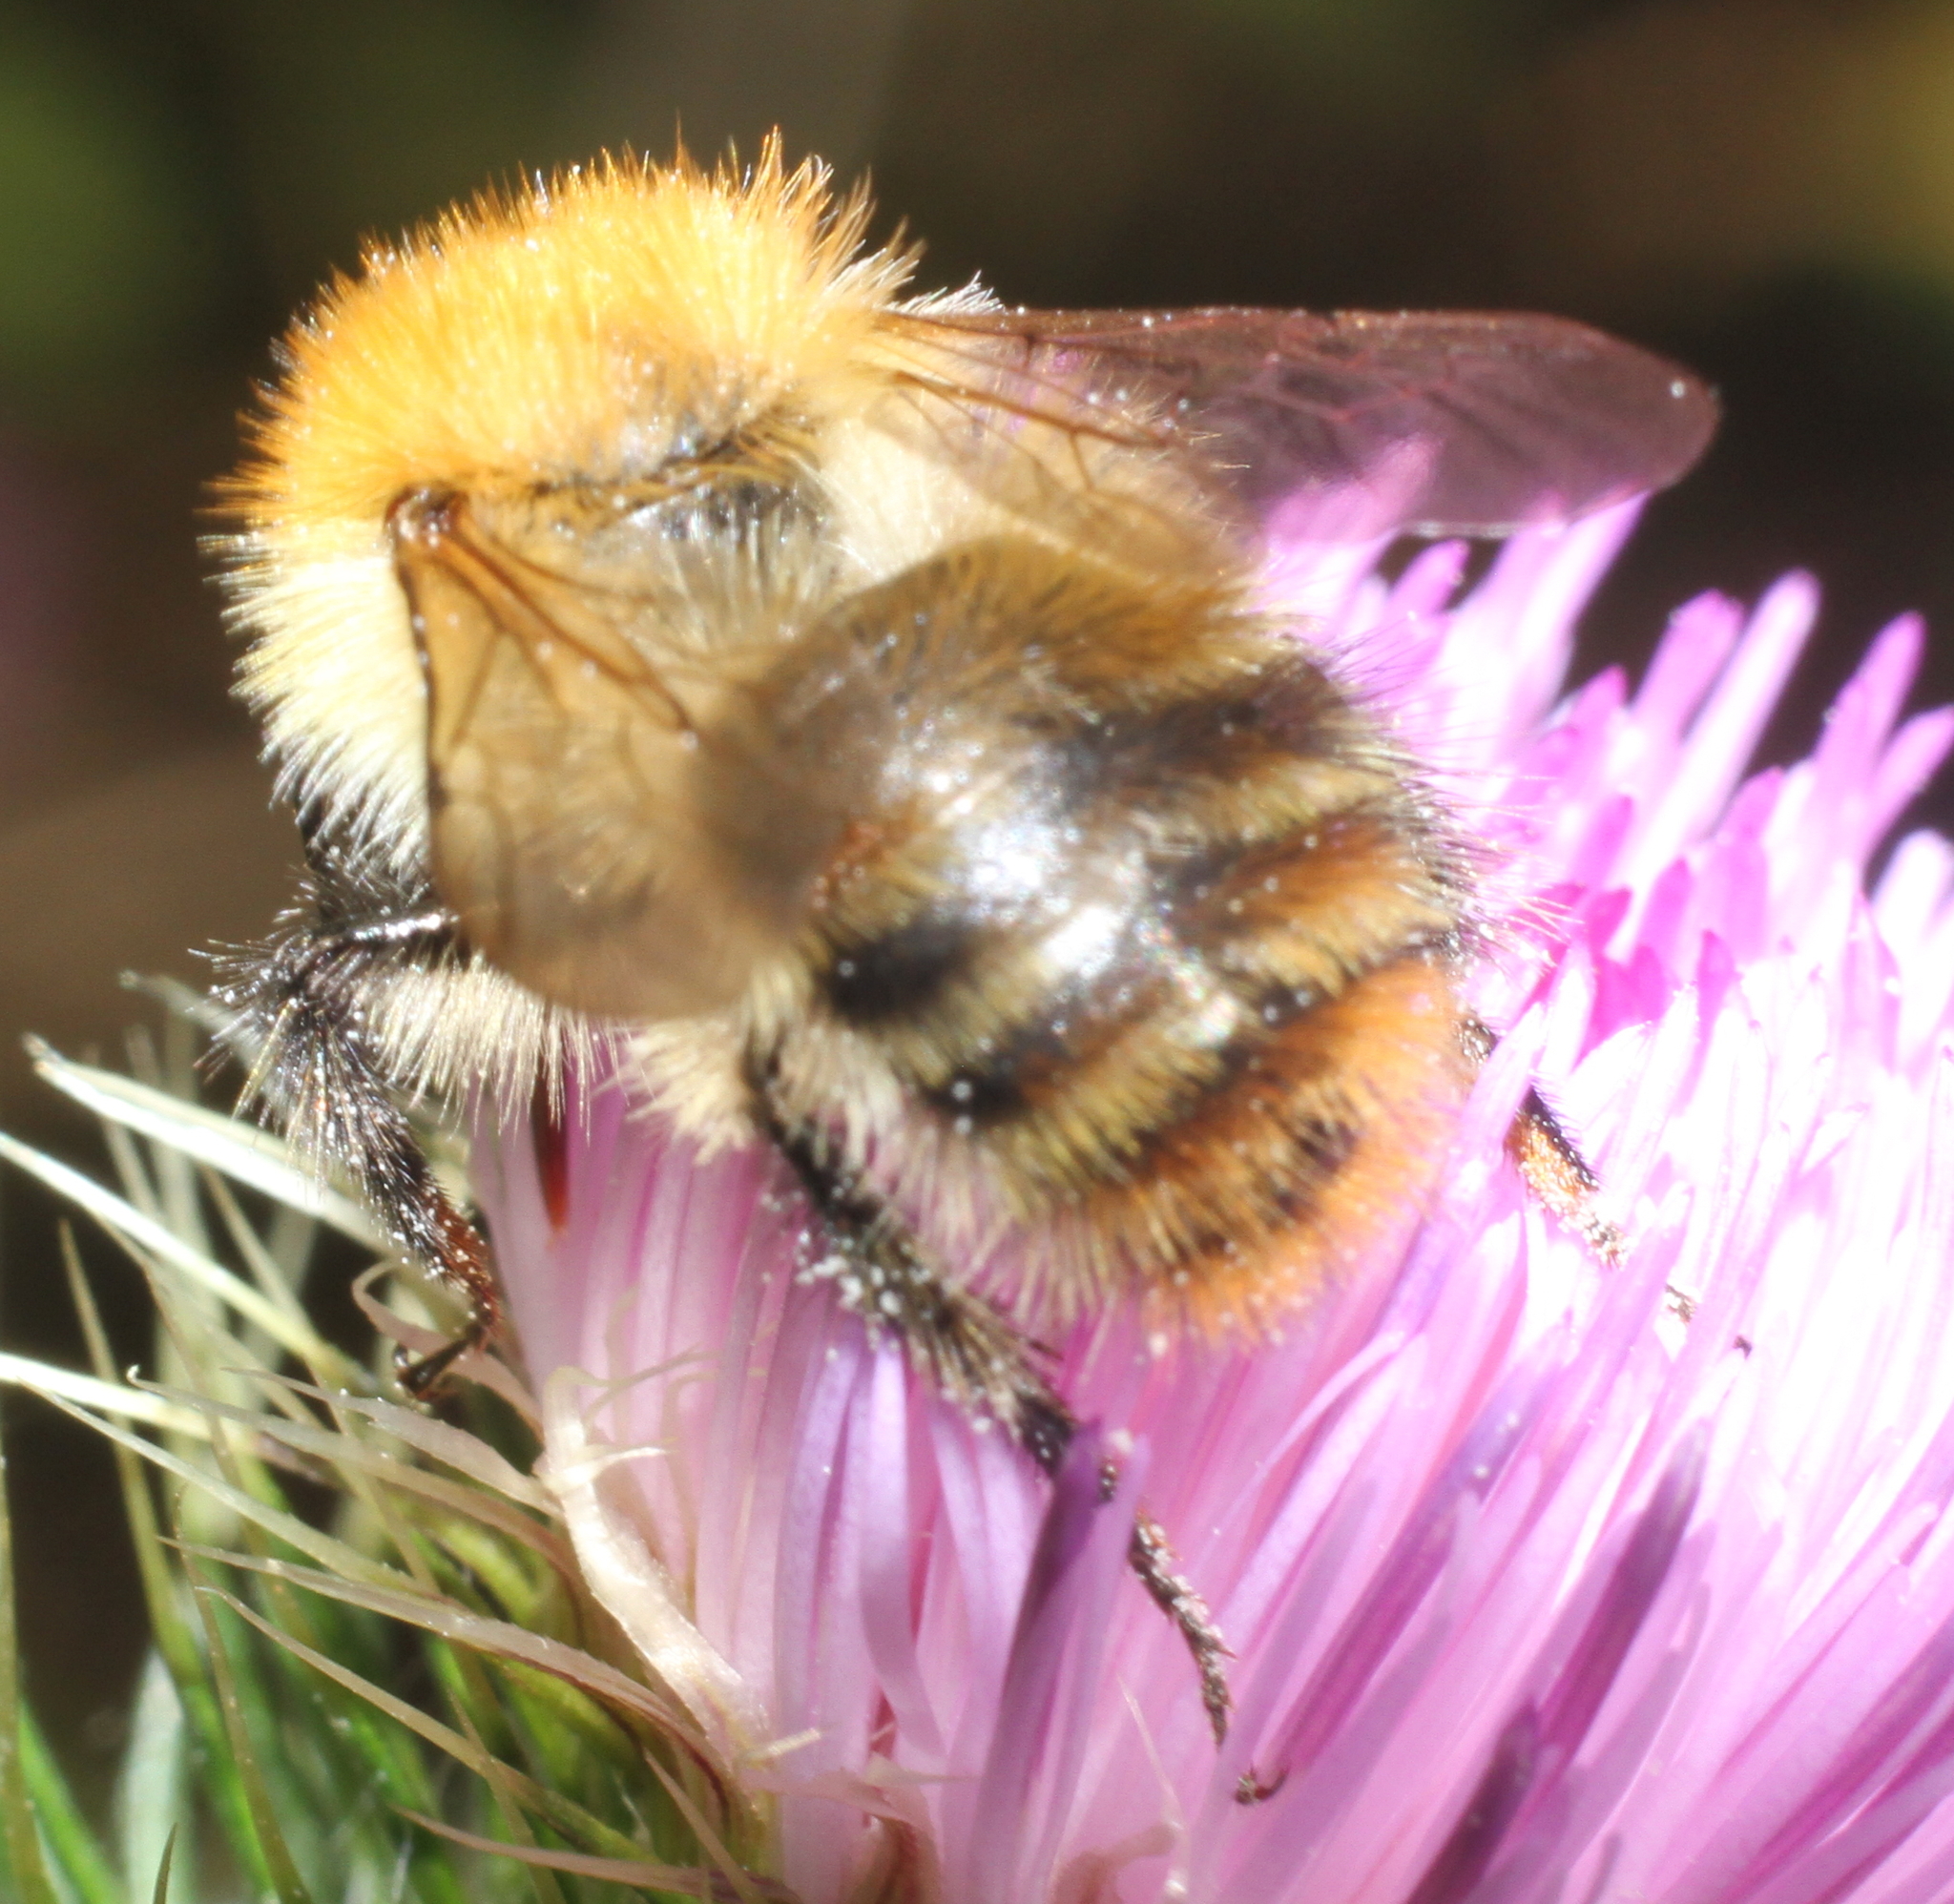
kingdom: Animalia
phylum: Arthropoda
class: Insecta
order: Hymenoptera
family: Apidae
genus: Bombus
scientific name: Bombus pascuorum
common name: Common carder bee
